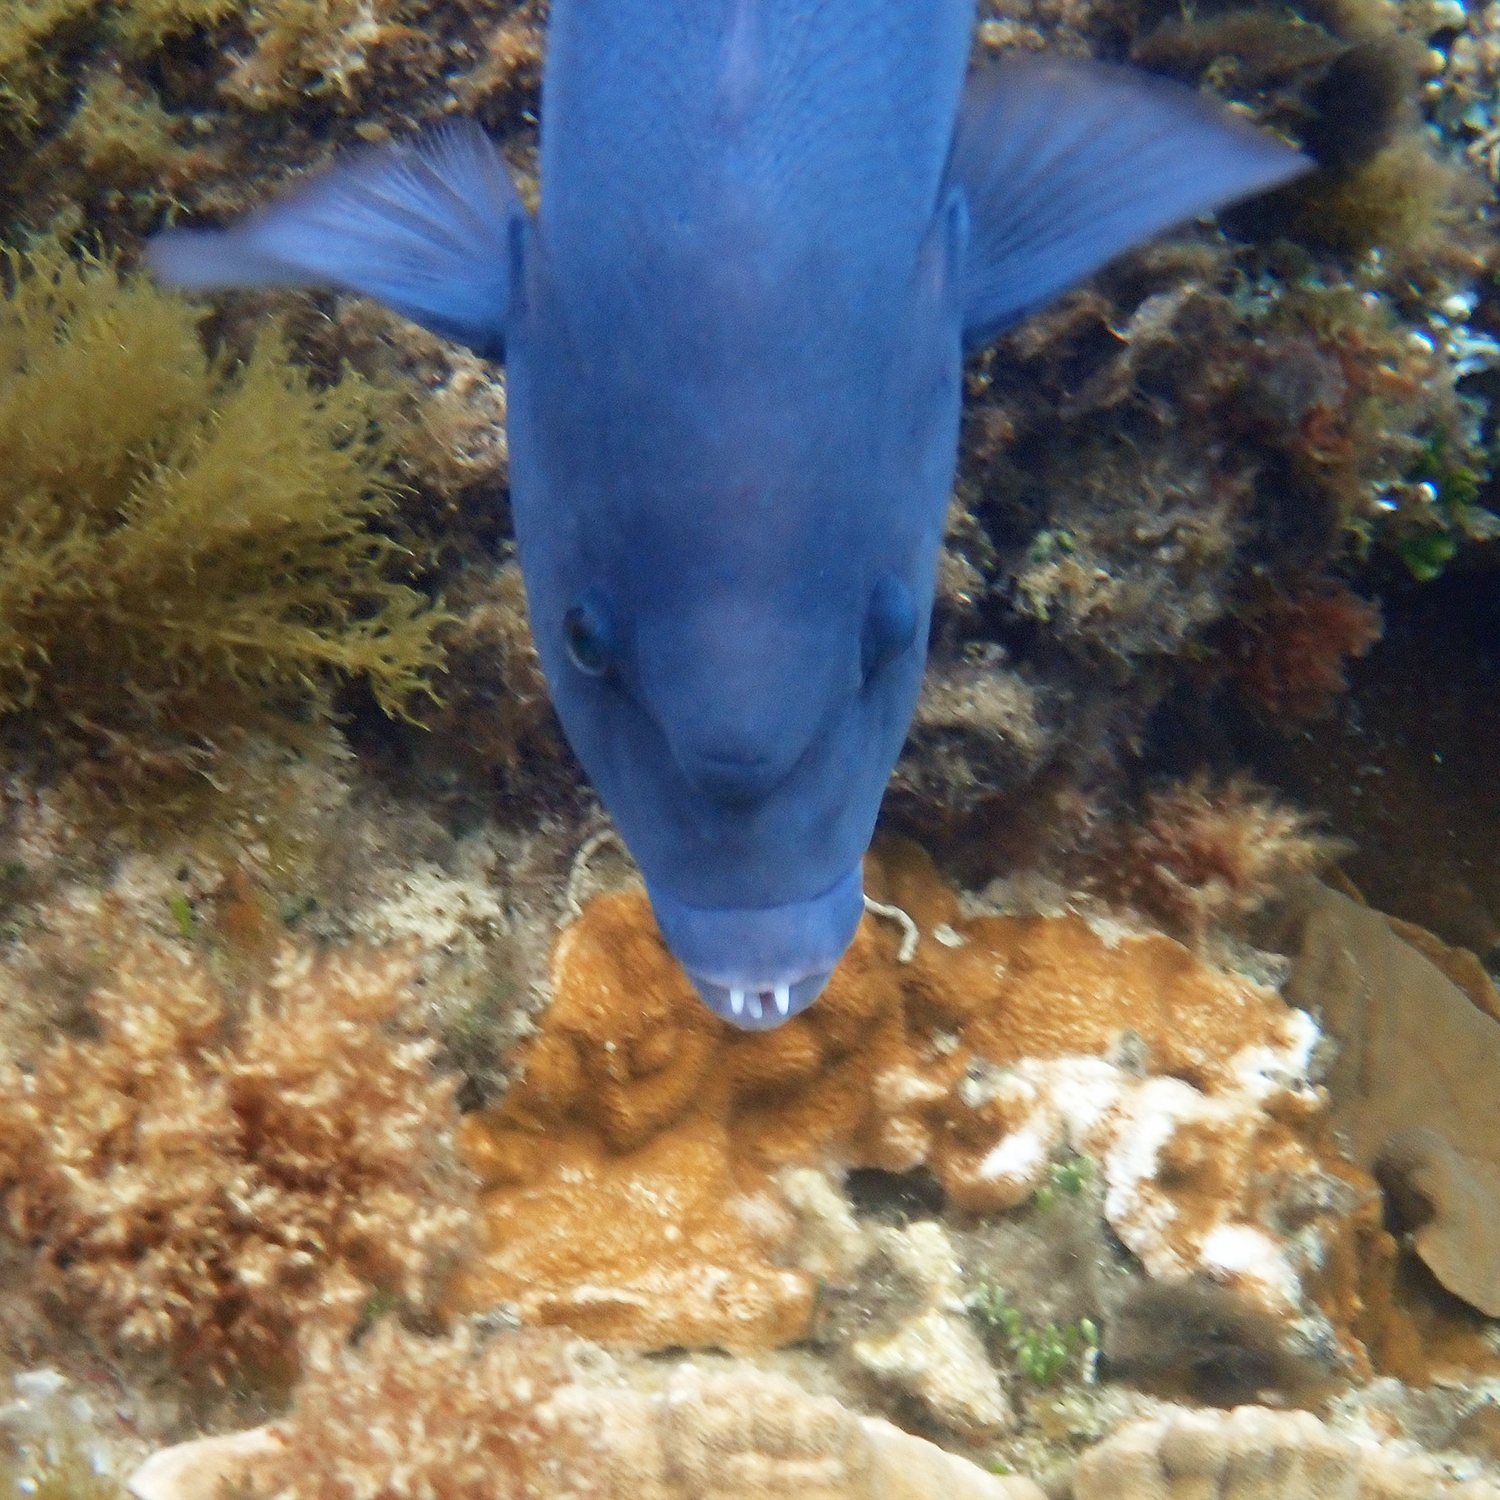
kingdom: Animalia
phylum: Chordata
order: Perciformes
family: Labridae
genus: Coris
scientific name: Coris bulbifrons
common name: Doubleheader
